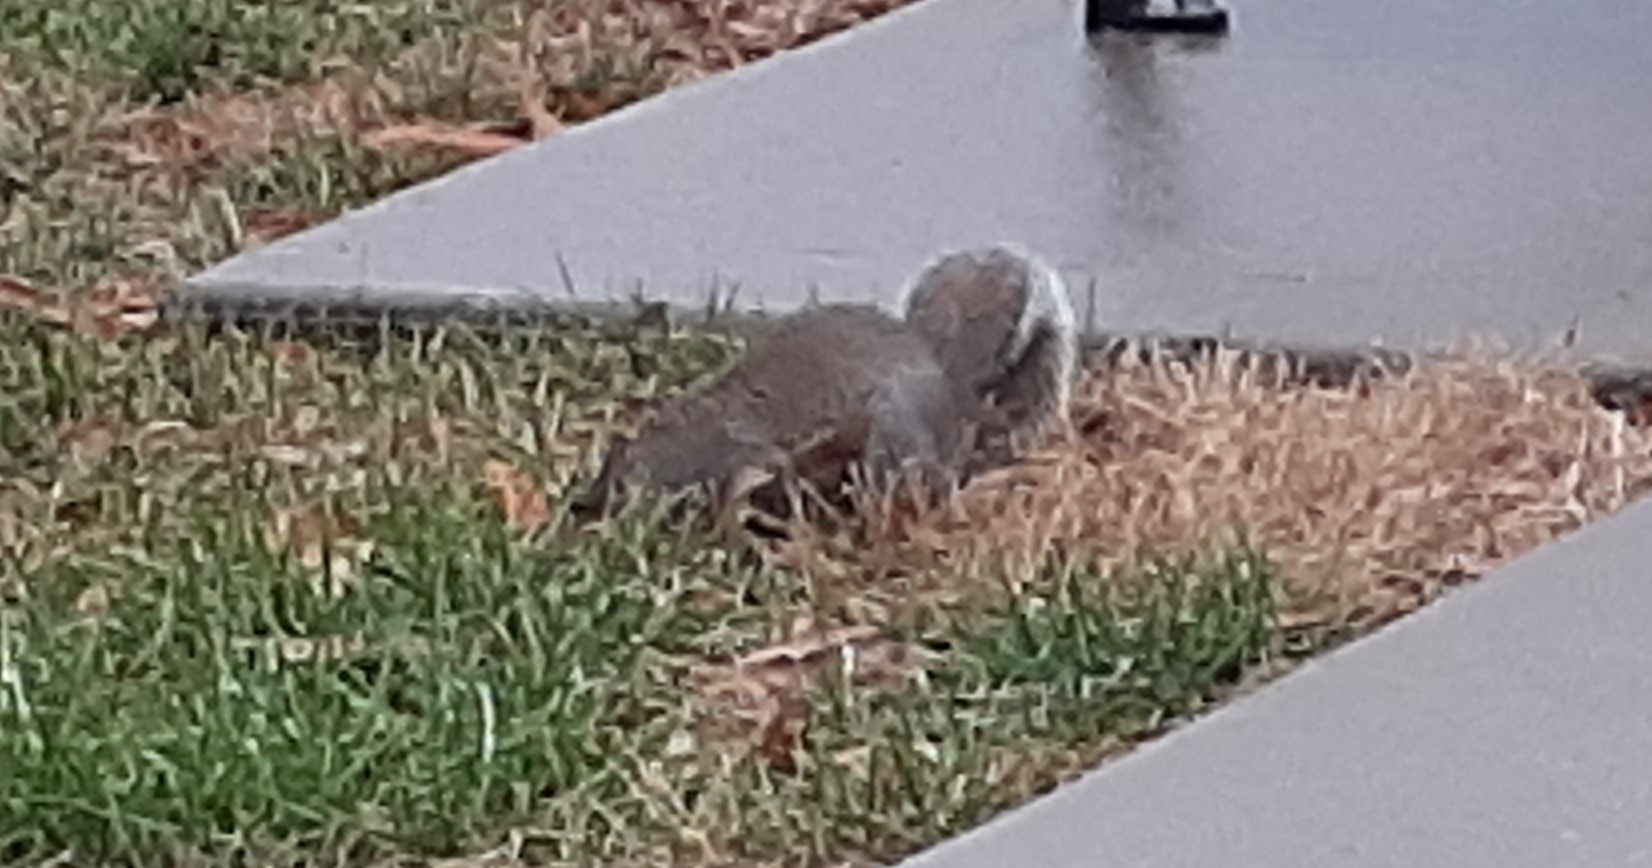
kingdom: Animalia
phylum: Chordata
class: Mammalia
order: Rodentia
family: Sciuridae
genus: Sciurus
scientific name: Sciurus carolinensis
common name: Eastern gray squirrel
